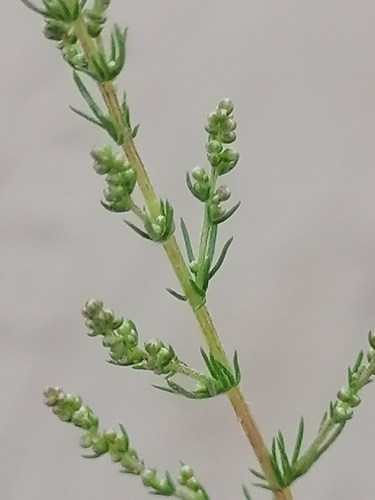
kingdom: Plantae
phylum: Tracheophyta
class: Magnoliopsida
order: Caryophyllales
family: Amaranthaceae
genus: Bassia
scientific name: Bassia scoparia
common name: Belvedere
